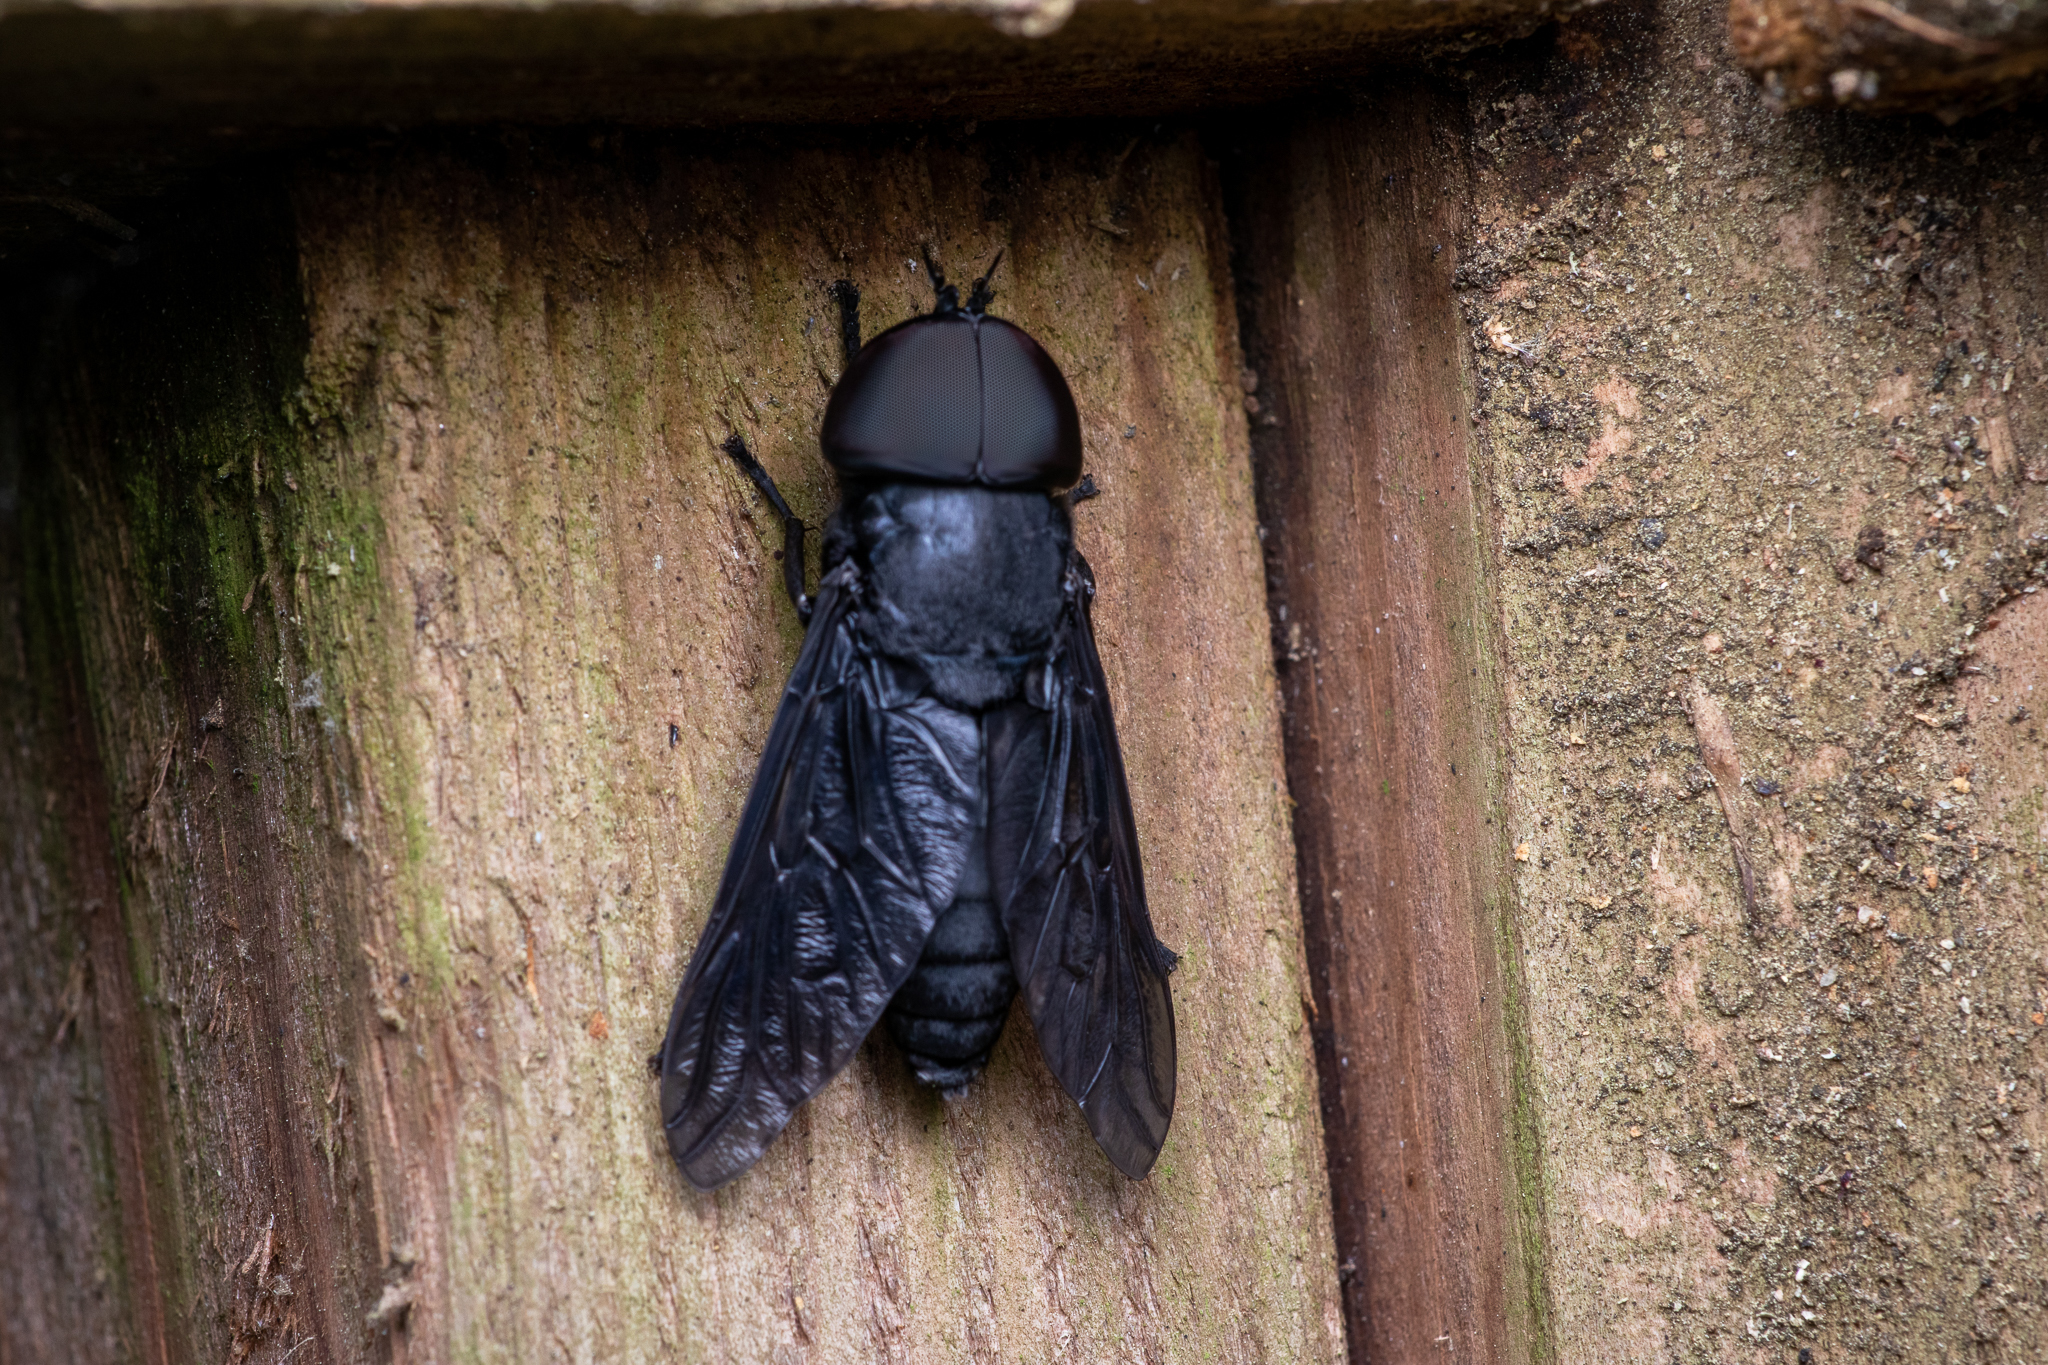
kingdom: Animalia
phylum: Arthropoda
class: Insecta
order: Diptera
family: Tabanidae
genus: Tabanus
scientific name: Tabanus atratus
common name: Black horse fly
